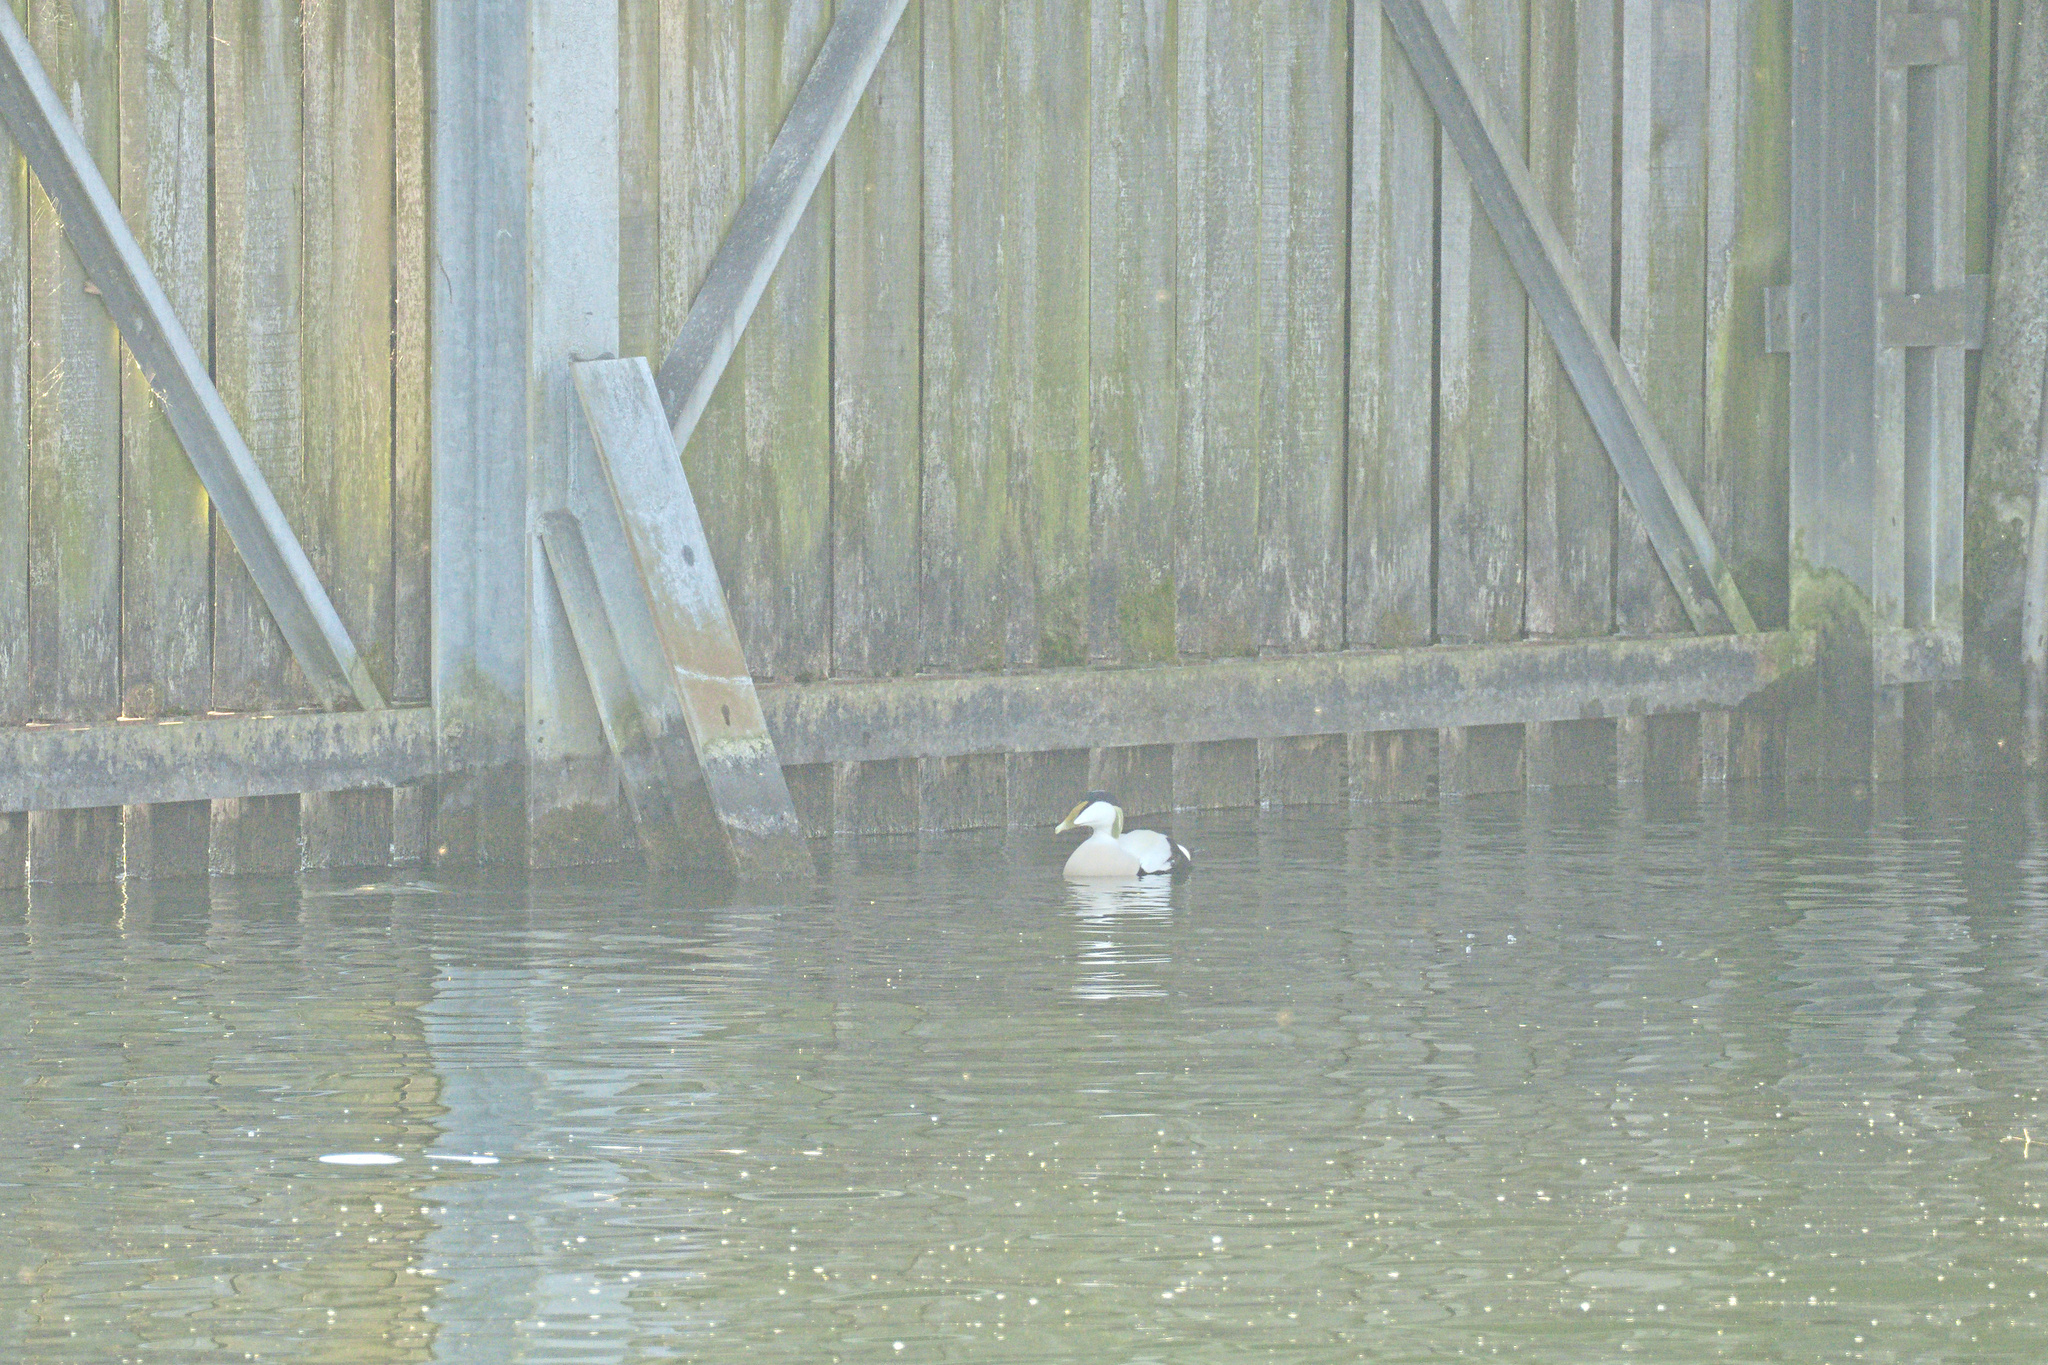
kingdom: Animalia
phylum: Chordata
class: Aves
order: Anseriformes
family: Anatidae
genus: Somateria
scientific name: Somateria mollissima
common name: Common eider
